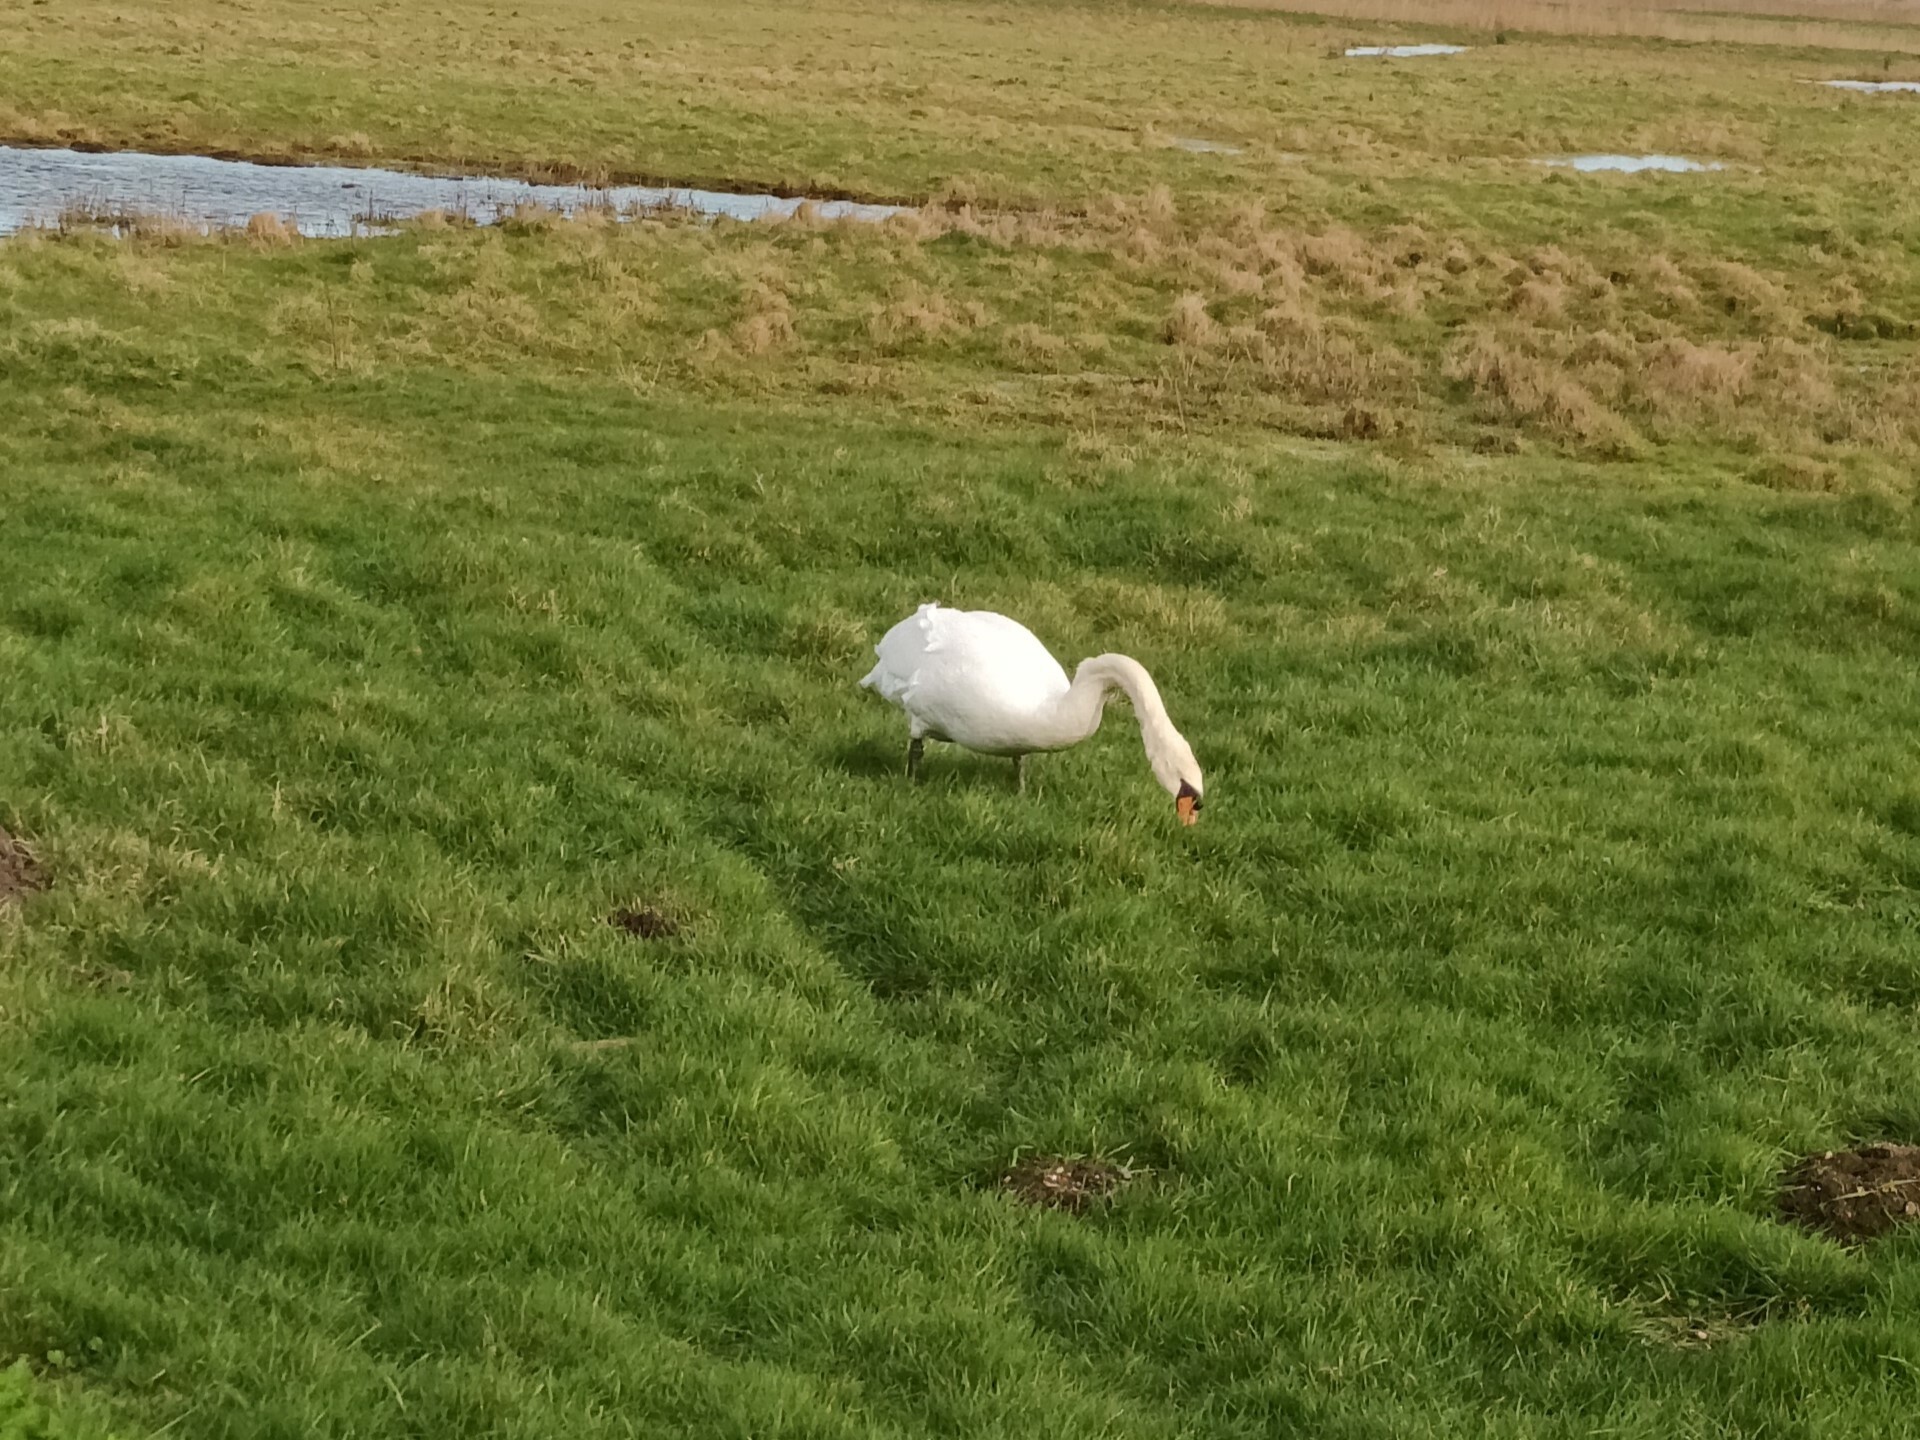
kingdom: Animalia
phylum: Chordata
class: Aves
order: Anseriformes
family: Anatidae
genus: Cygnus
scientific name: Cygnus olor
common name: Mute swan
